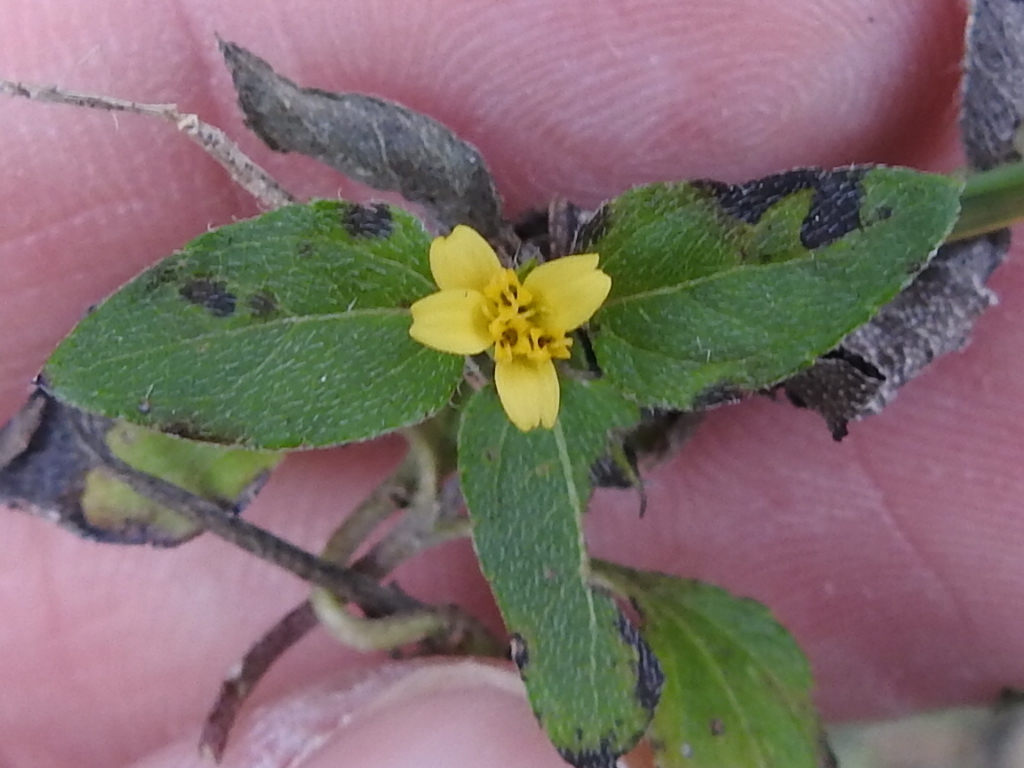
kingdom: Plantae
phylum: Tracheophyta
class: Magnoliopsida
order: Asterales
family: Asteraceae
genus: Calyptocarpus
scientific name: Calyptocarpus vialis
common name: Straggler daisy
